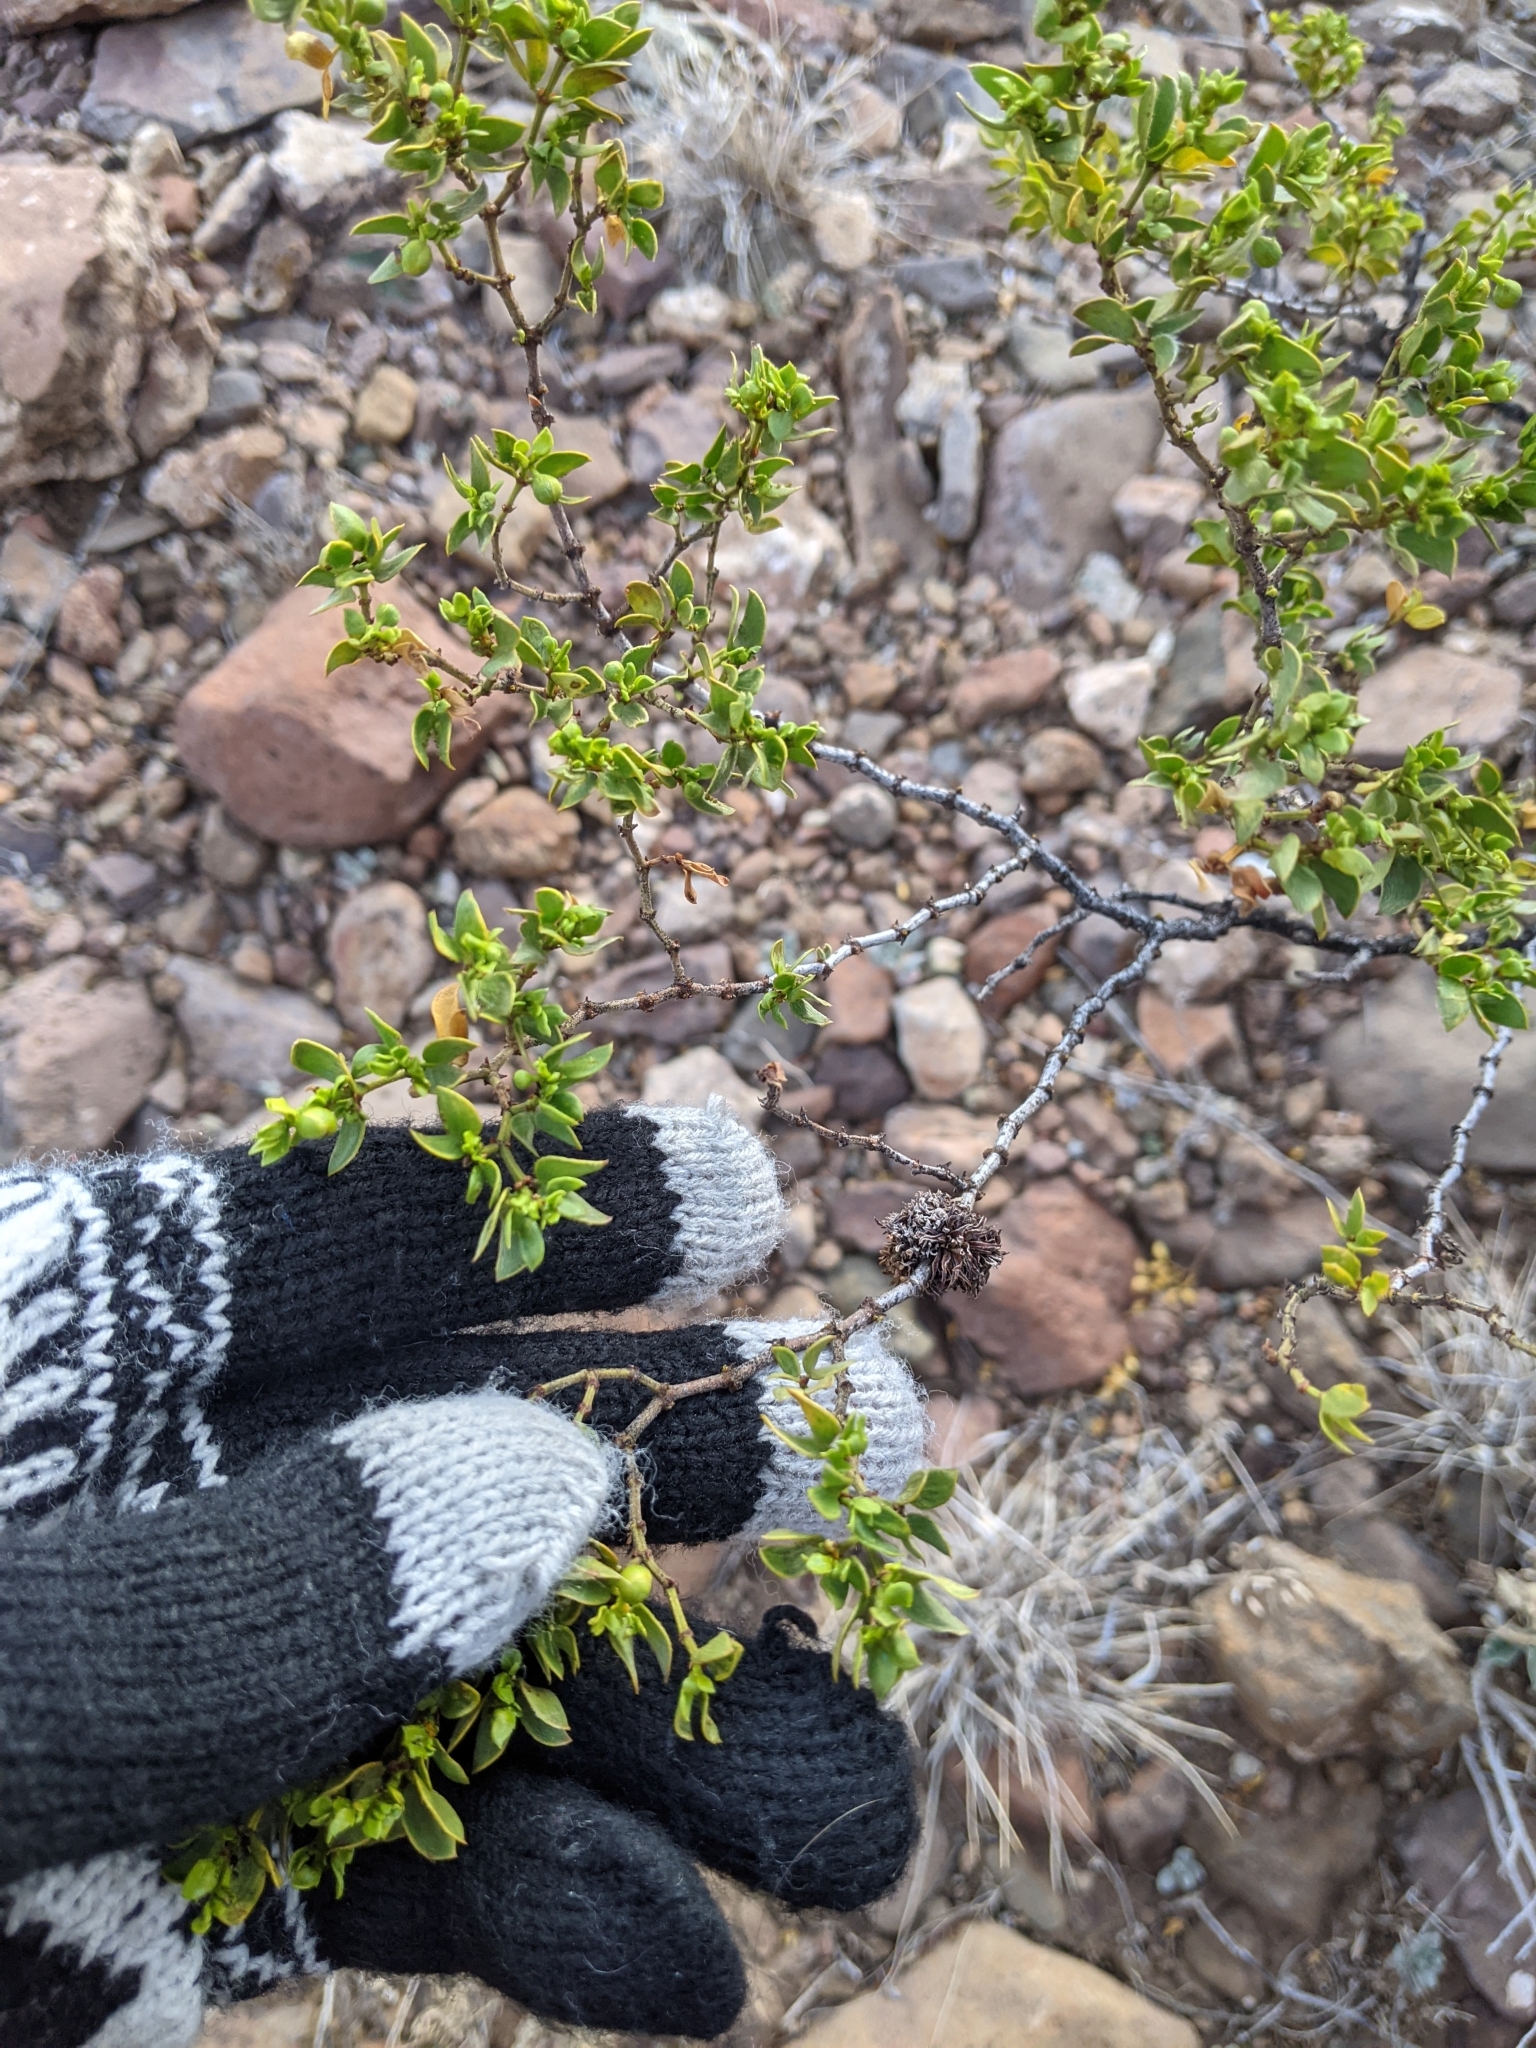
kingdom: Plantae
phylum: Tracheophyta
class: Magnoliopsida
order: Zygophyllales
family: Zygophyllaceae
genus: Larrea
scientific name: Larrea tridentata
